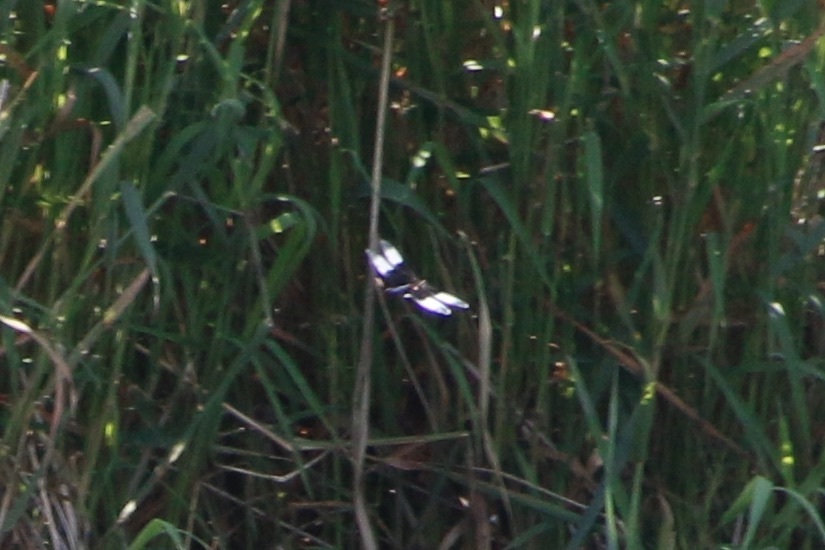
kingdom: Animalia
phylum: Arthropoda
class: Insecta
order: Odonata
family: Libellulidae
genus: Libellula
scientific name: Libellula luctuosa
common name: Widow skimmer
